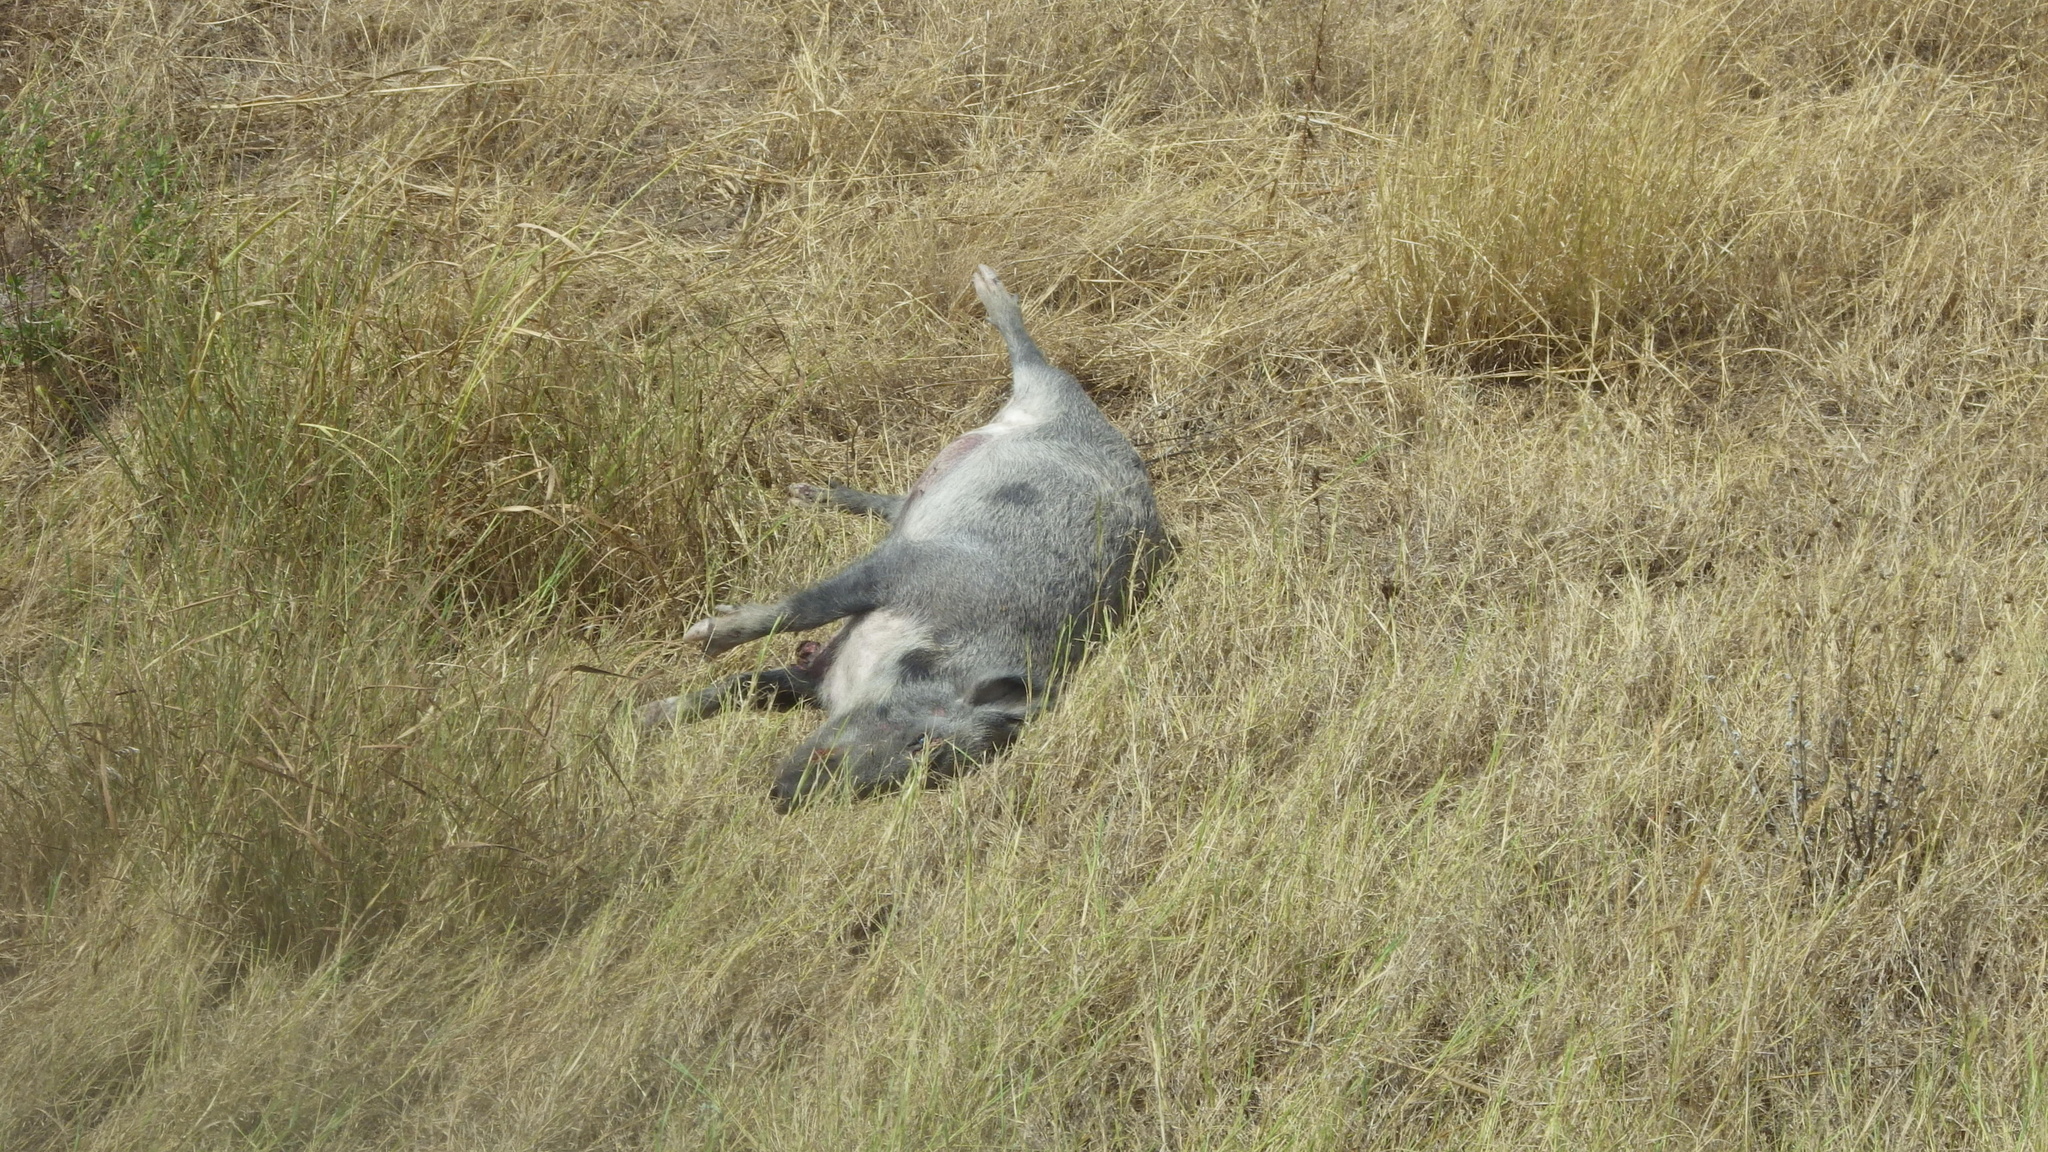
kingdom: Animalia
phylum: Chordata
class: Mammalia
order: Artiodactyla
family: Suidae
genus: Sus
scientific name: Sus scrofa
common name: Wild boar
